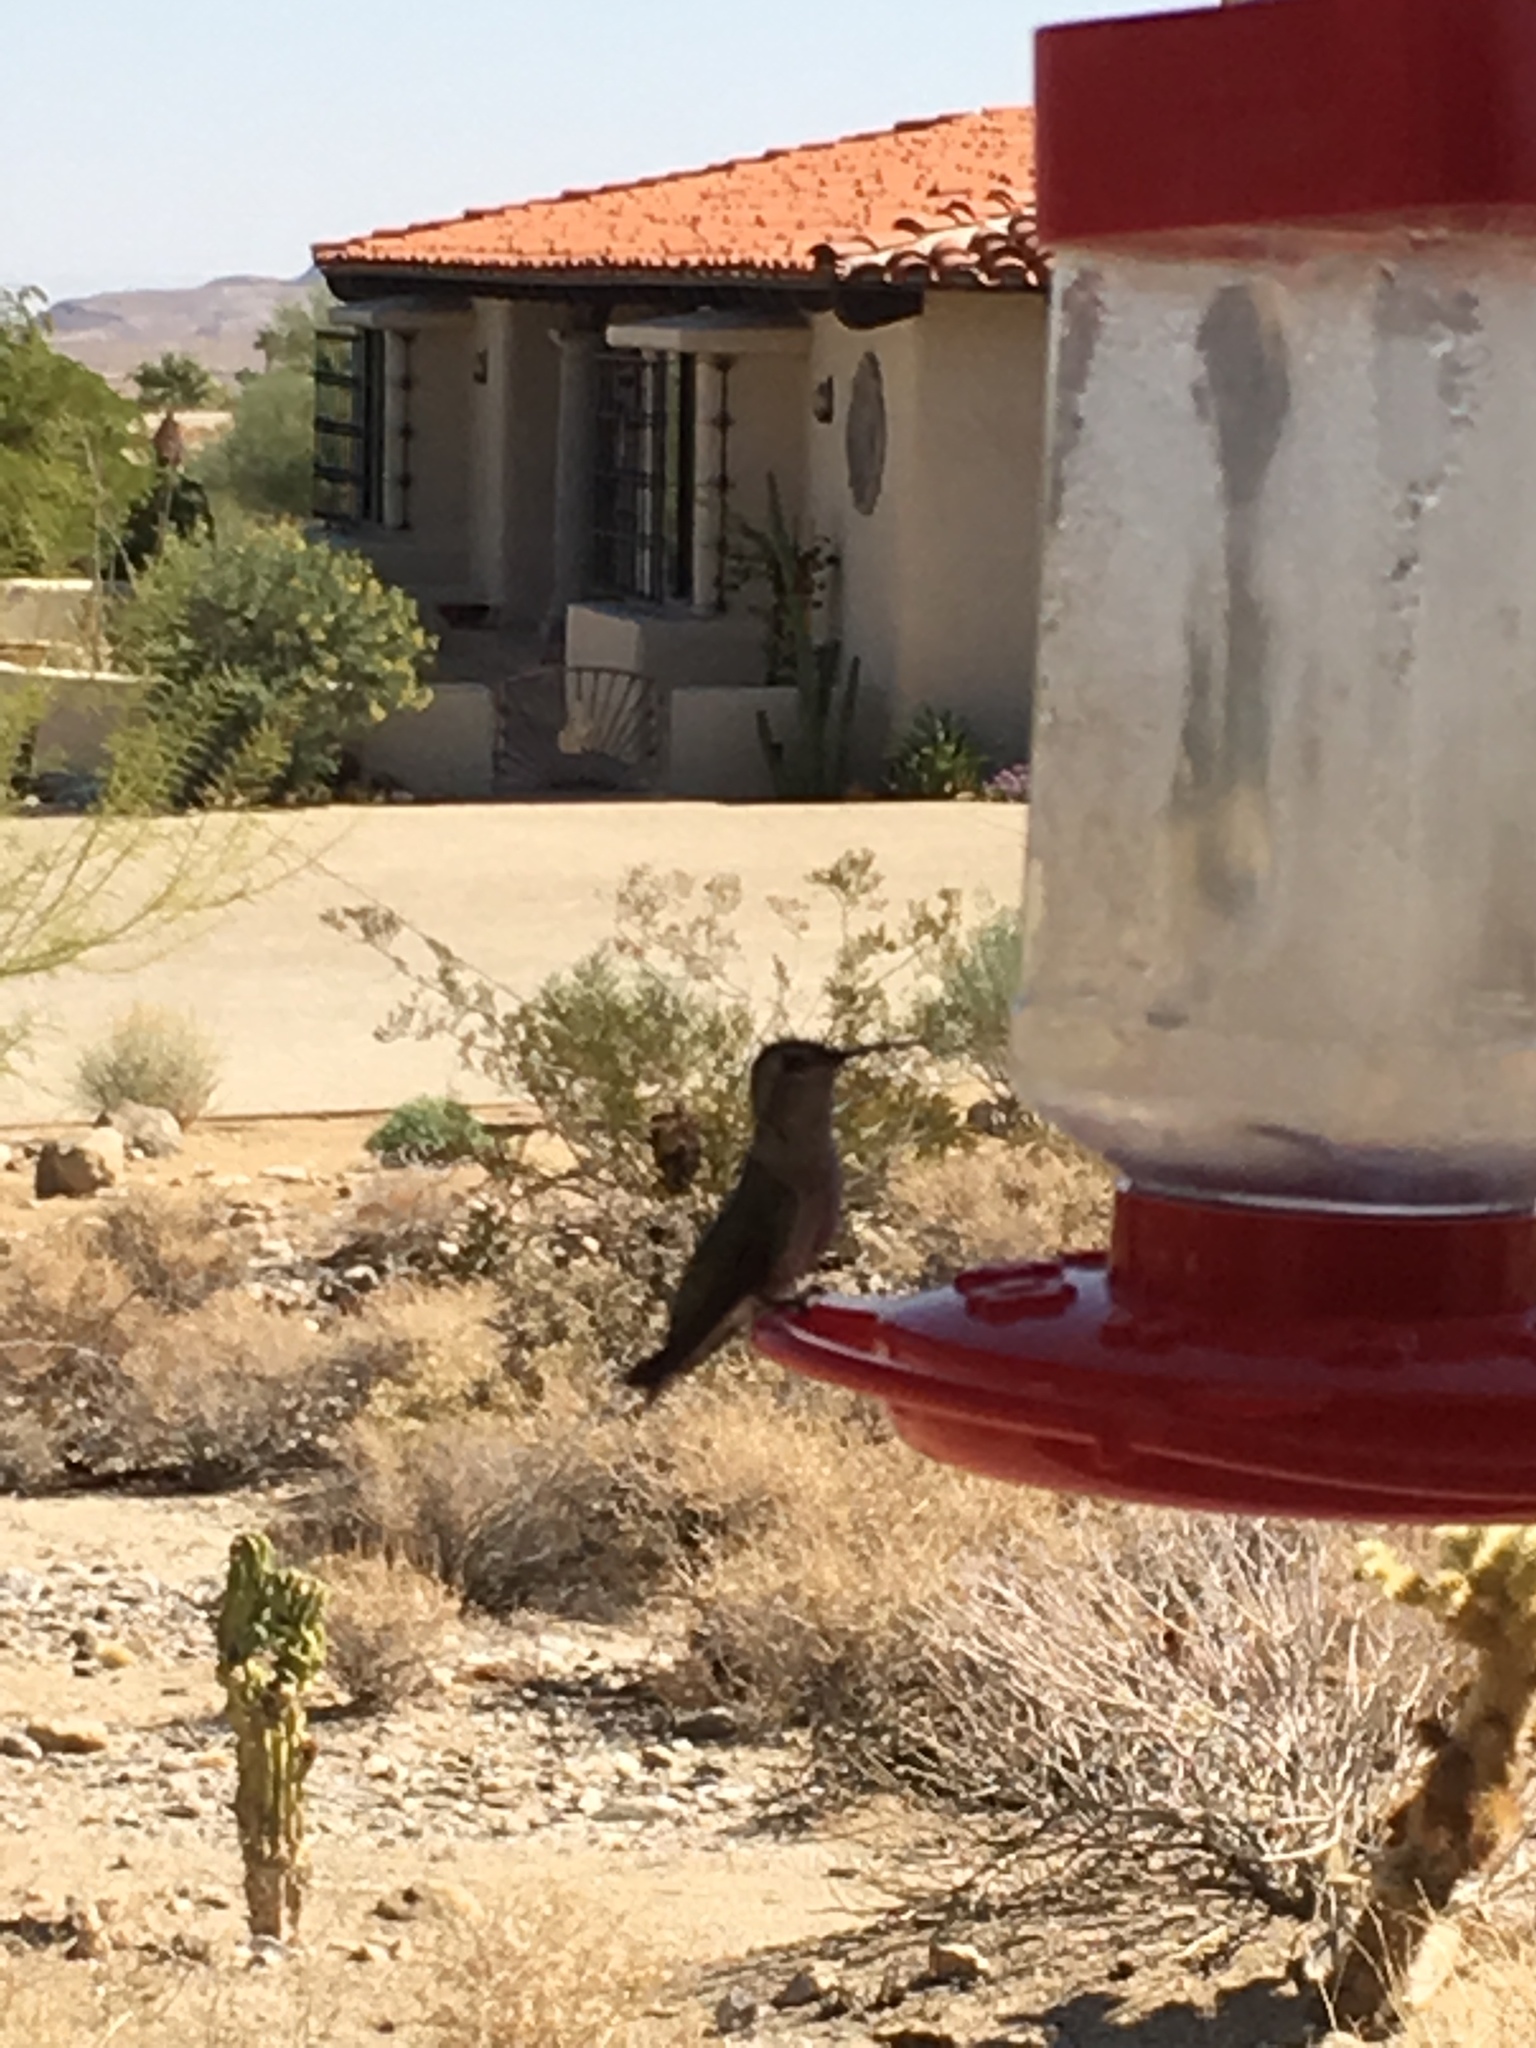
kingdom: Animalia
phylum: Chordata
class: Aves
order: Apodiformes
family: Trochilidae
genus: Calypte
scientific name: Calypte costae
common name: Costa's hummingbird
